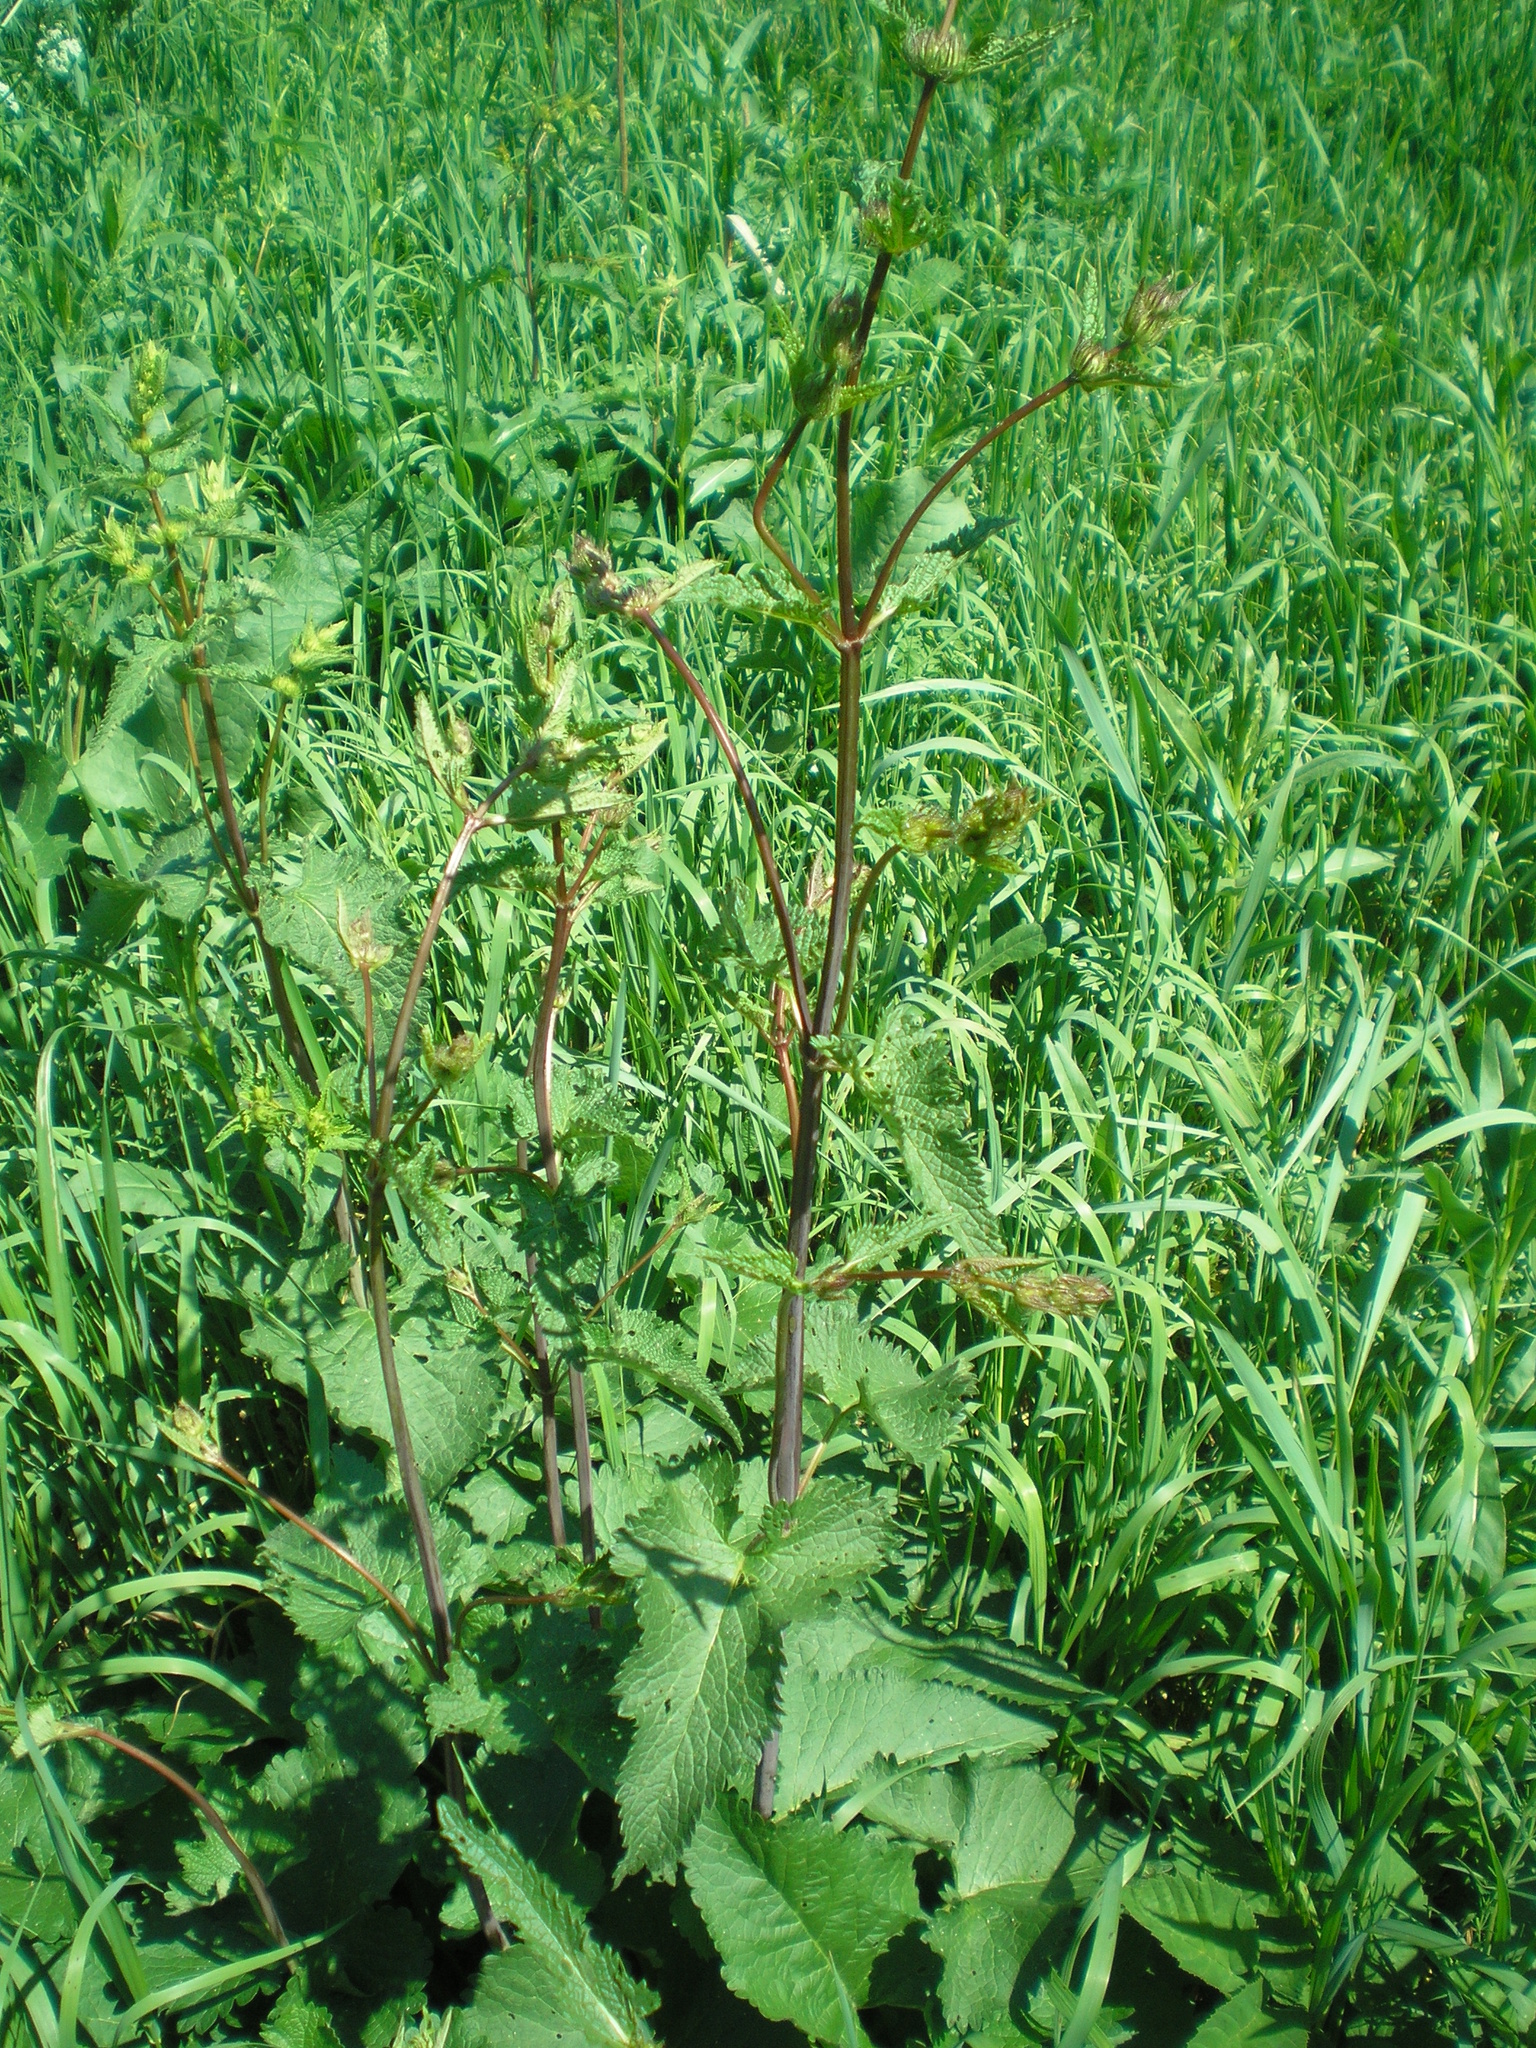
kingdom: Plantae
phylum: Tracheophyta
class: Magnoliopsida
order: Lamiales
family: Lamiaceae
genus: Phlomoides
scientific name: Phlomoides tuberosa
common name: Tuberous jerusalem sage
